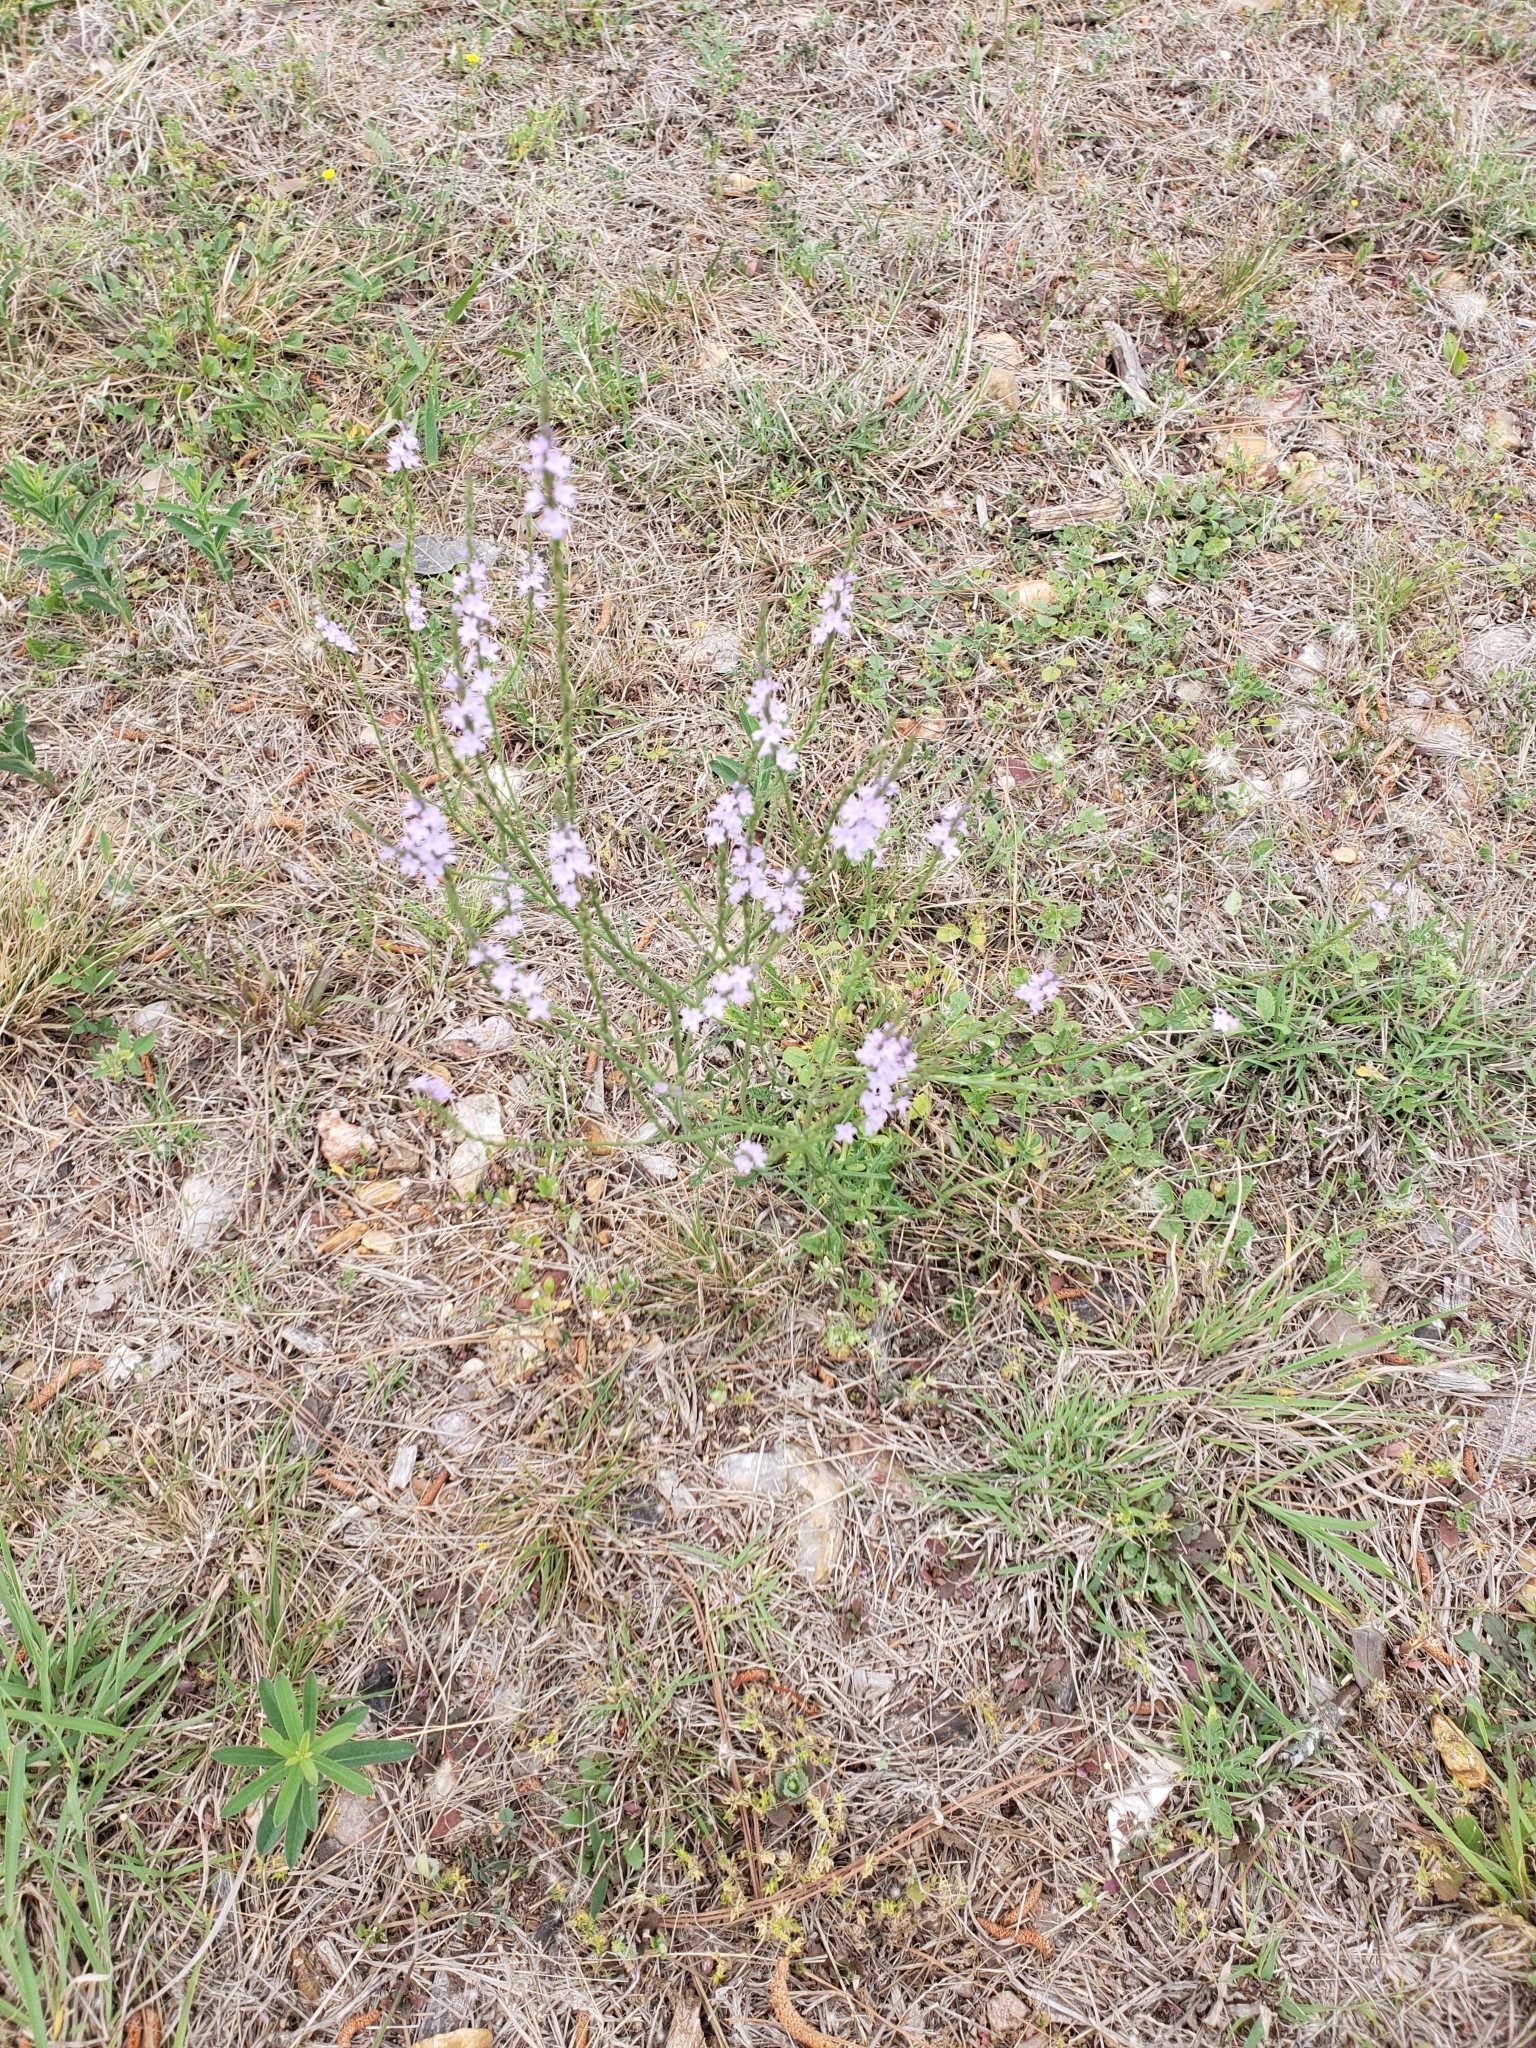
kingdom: Plantae
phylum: Tracheophyta
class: Magnoliopsida
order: Lamiales
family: Verbenaceae
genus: Verbena
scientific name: Verbena halei
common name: Texas vervain
